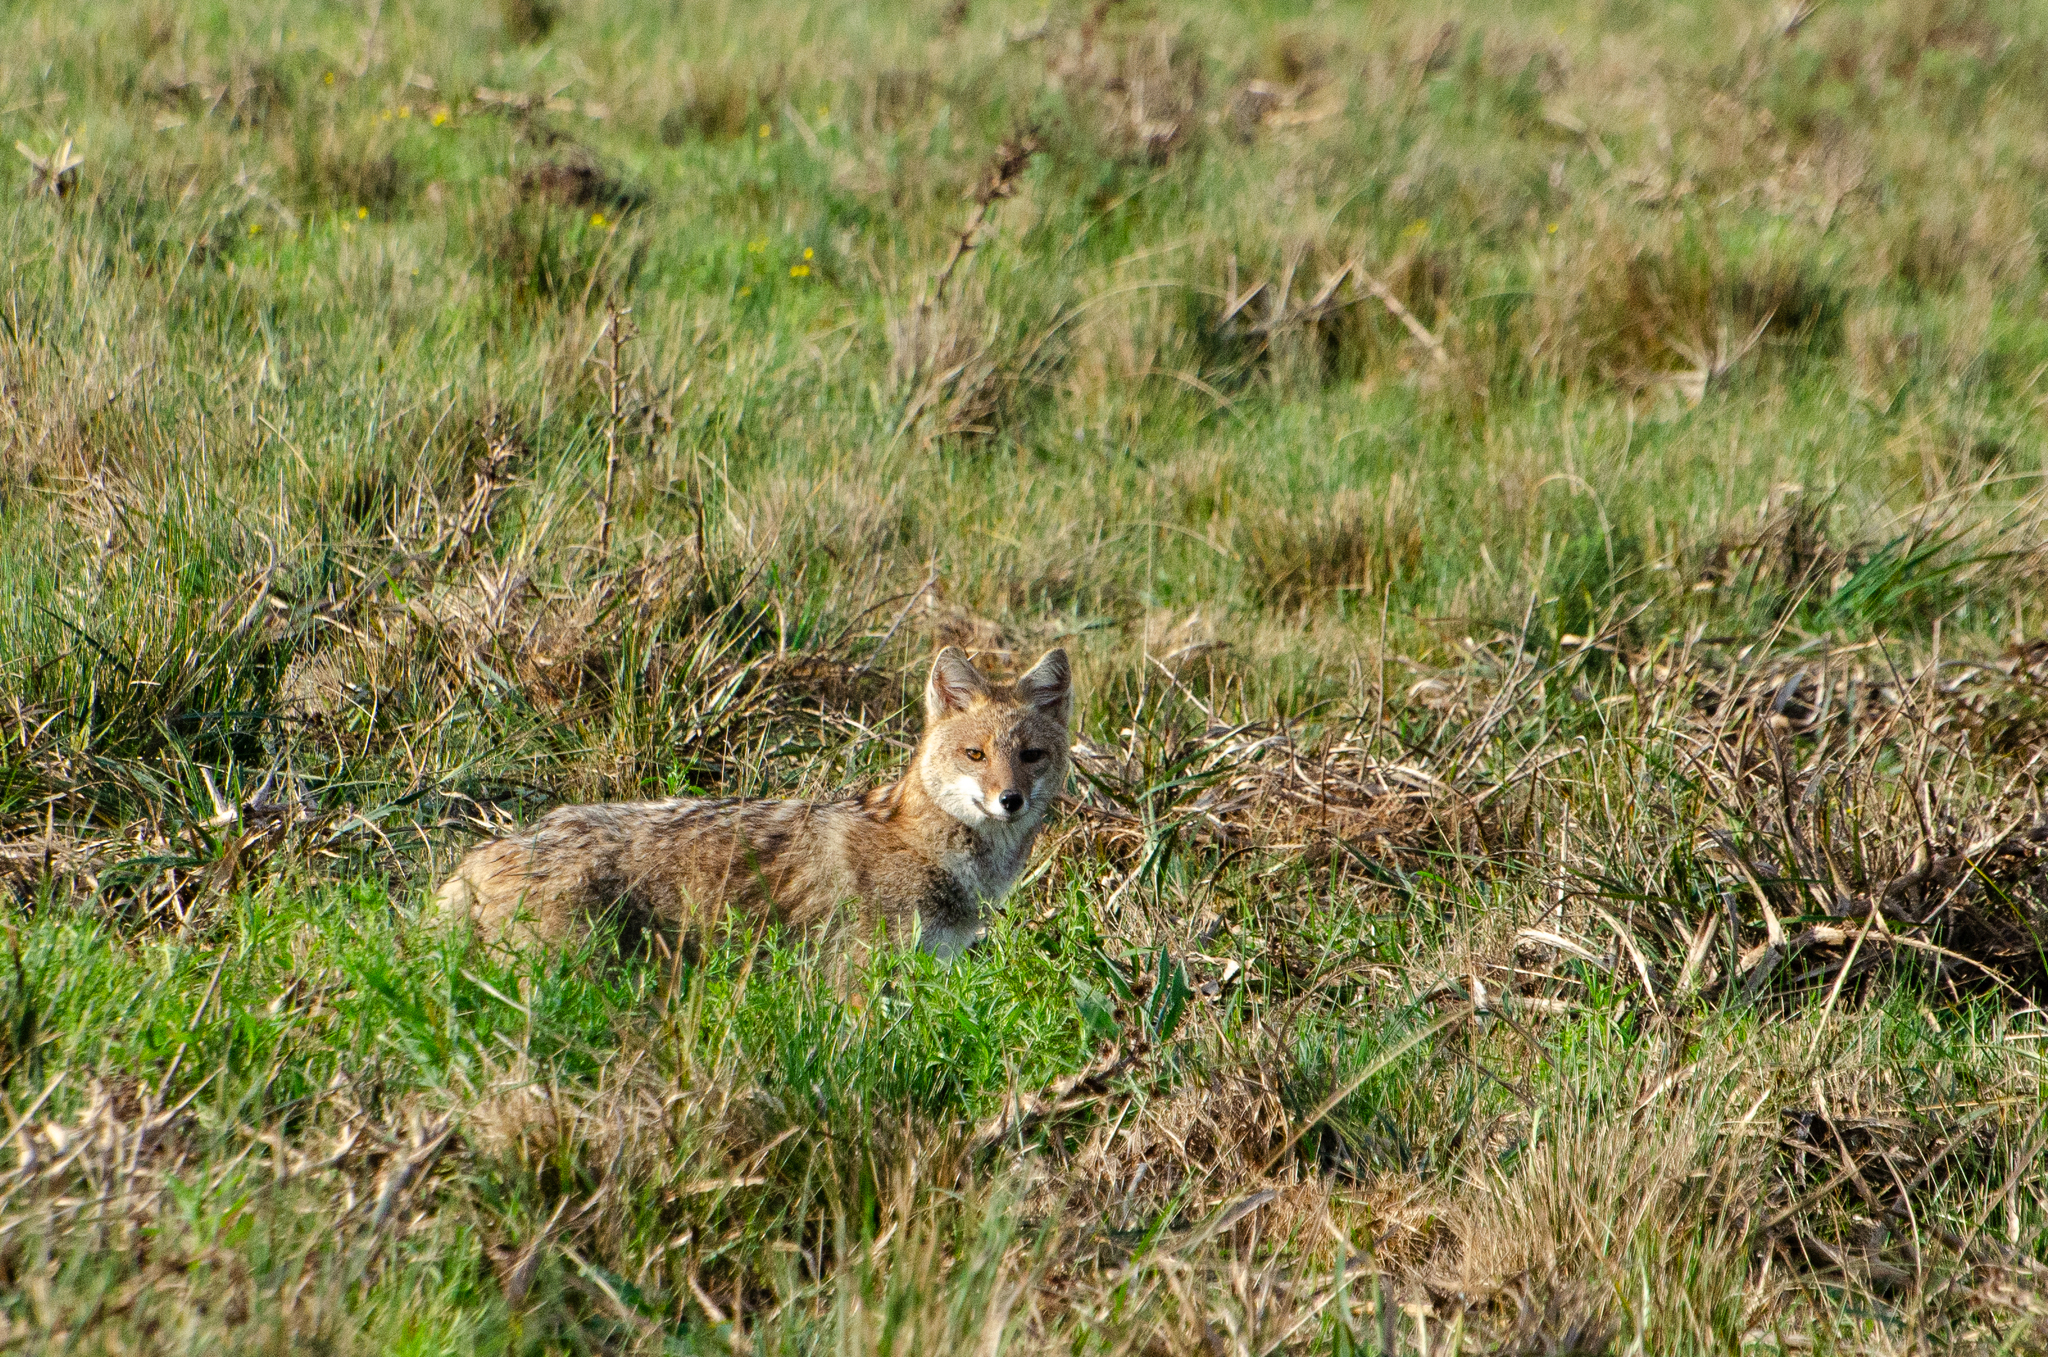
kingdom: Animalia
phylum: Chordata
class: Mammalia
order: Carnivora
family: Canidae
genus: Lycalopex
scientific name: Lycalopex gymnocercus
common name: Pampas fox
